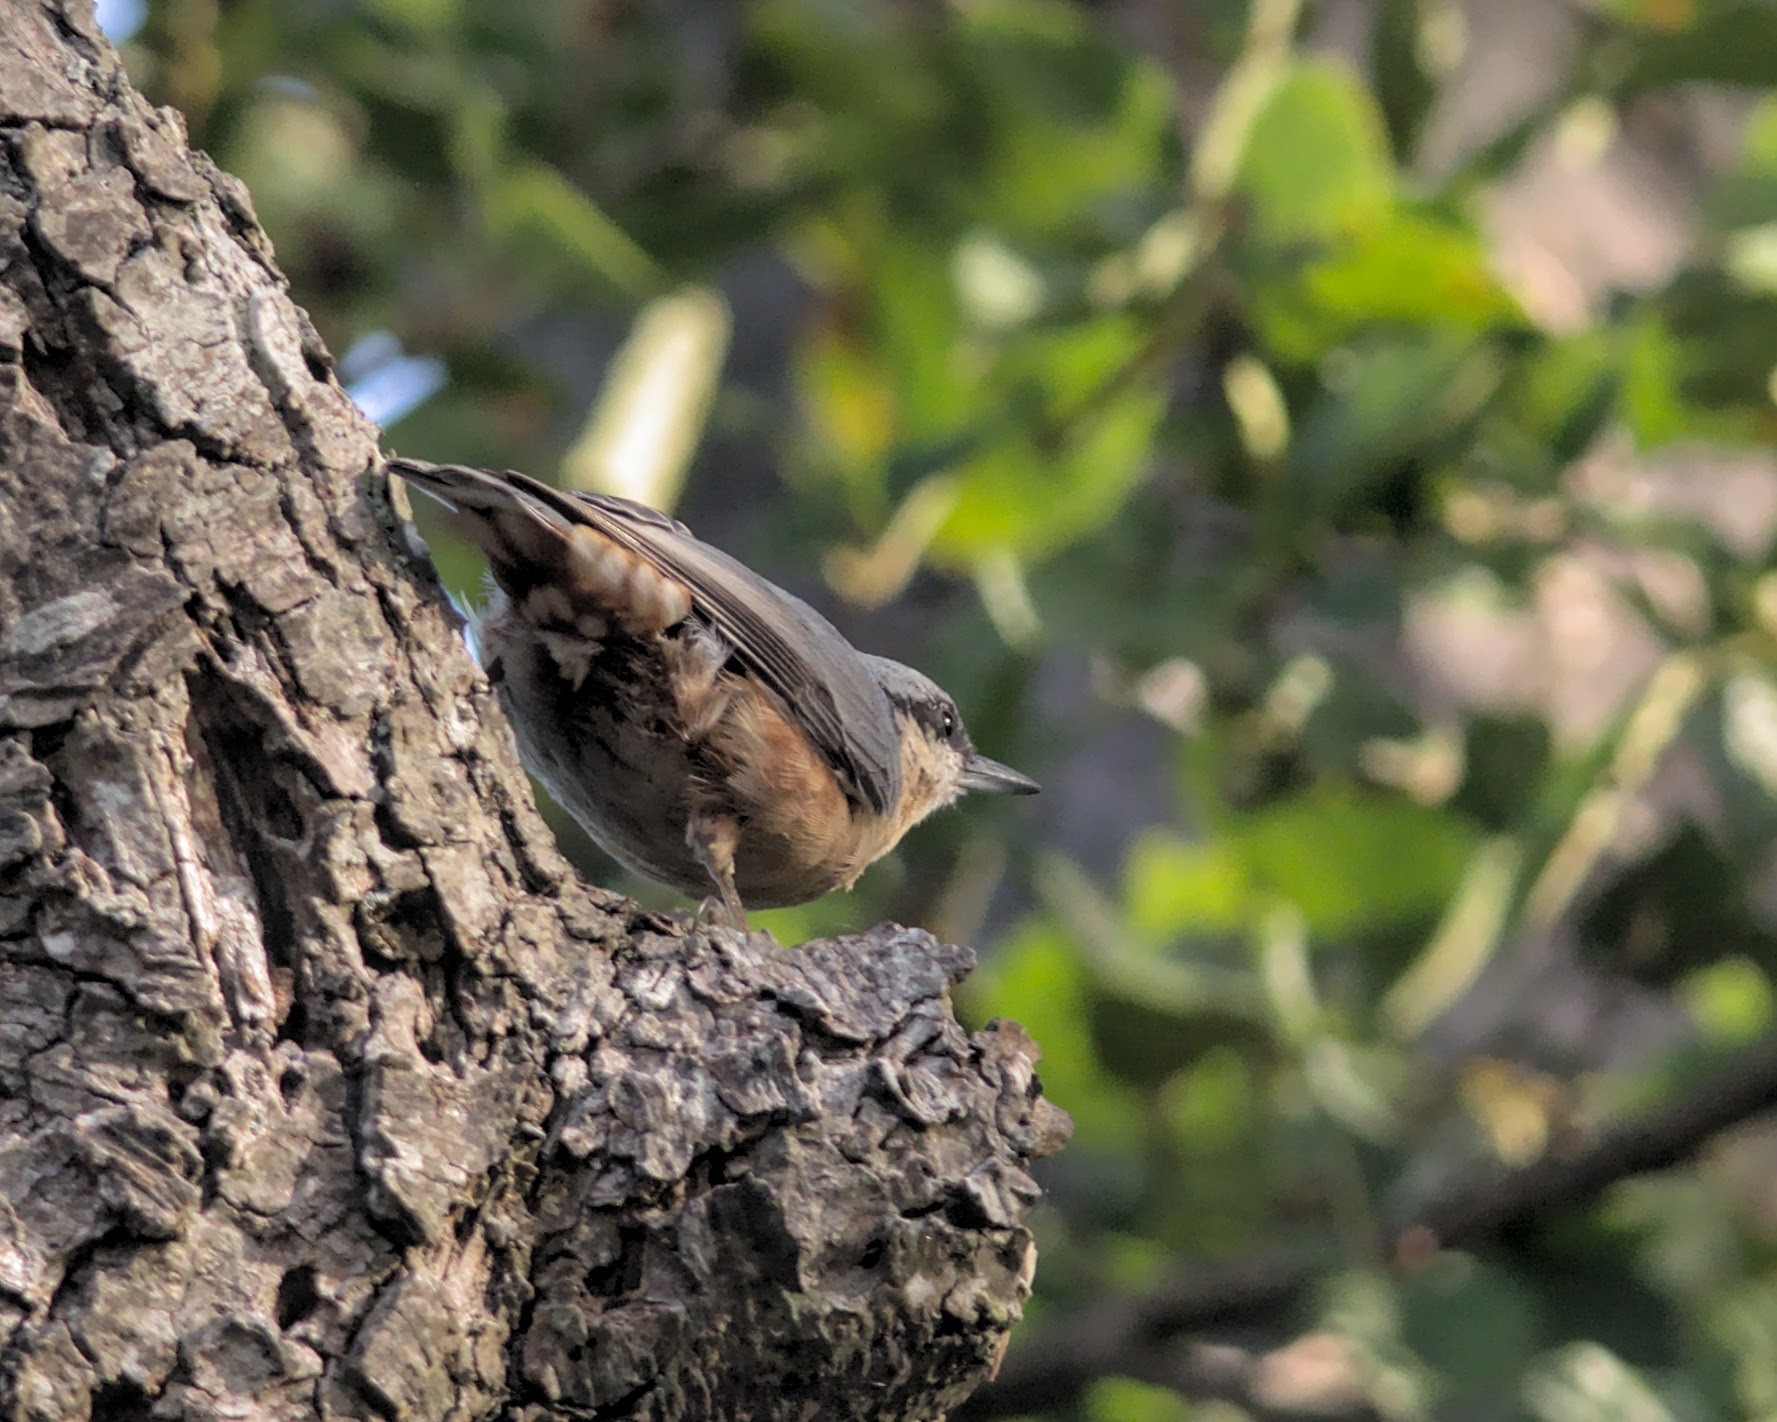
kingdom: Animalia
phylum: Chordata
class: Aves
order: Passeriformes
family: Sittidae
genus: Sitta
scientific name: Sitta europaea
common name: Eurasian nuthatch
